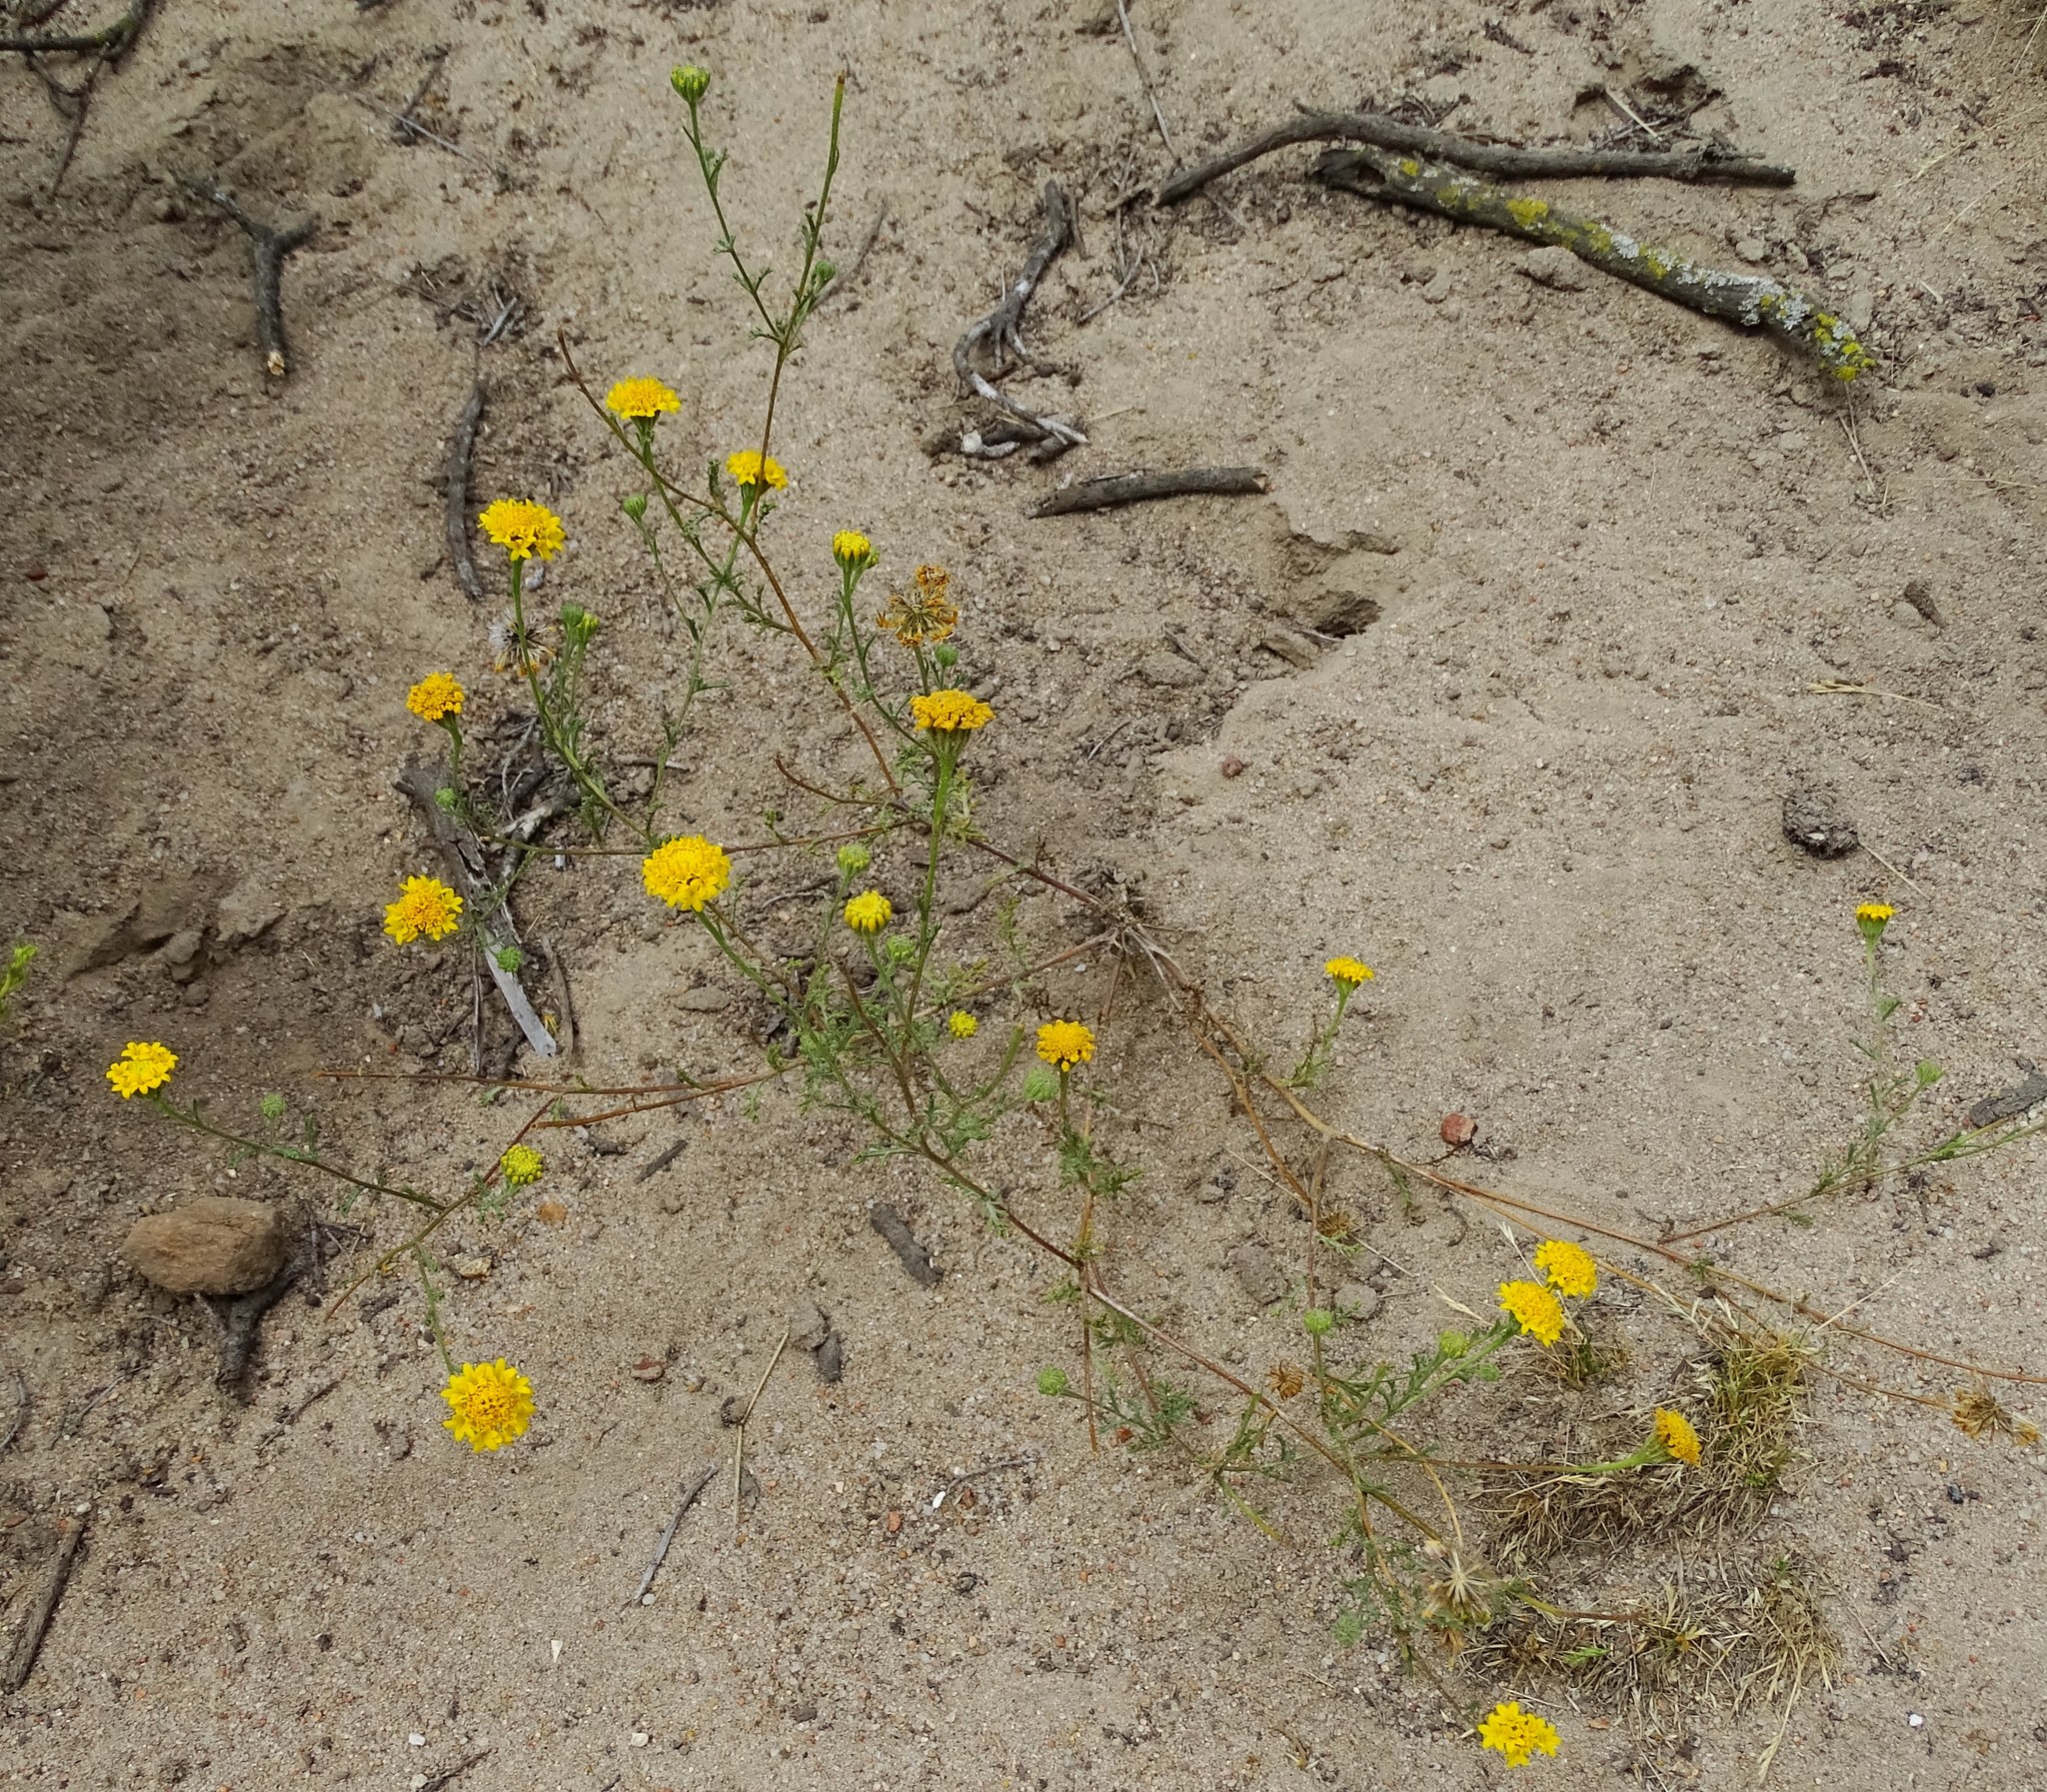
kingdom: Plantae
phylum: Tracheophyta
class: Magnoliopsida
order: Asterales
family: Asteraceae
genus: Chaenactis
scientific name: Chaenactis glabriuscula
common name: Yellow pincushion
